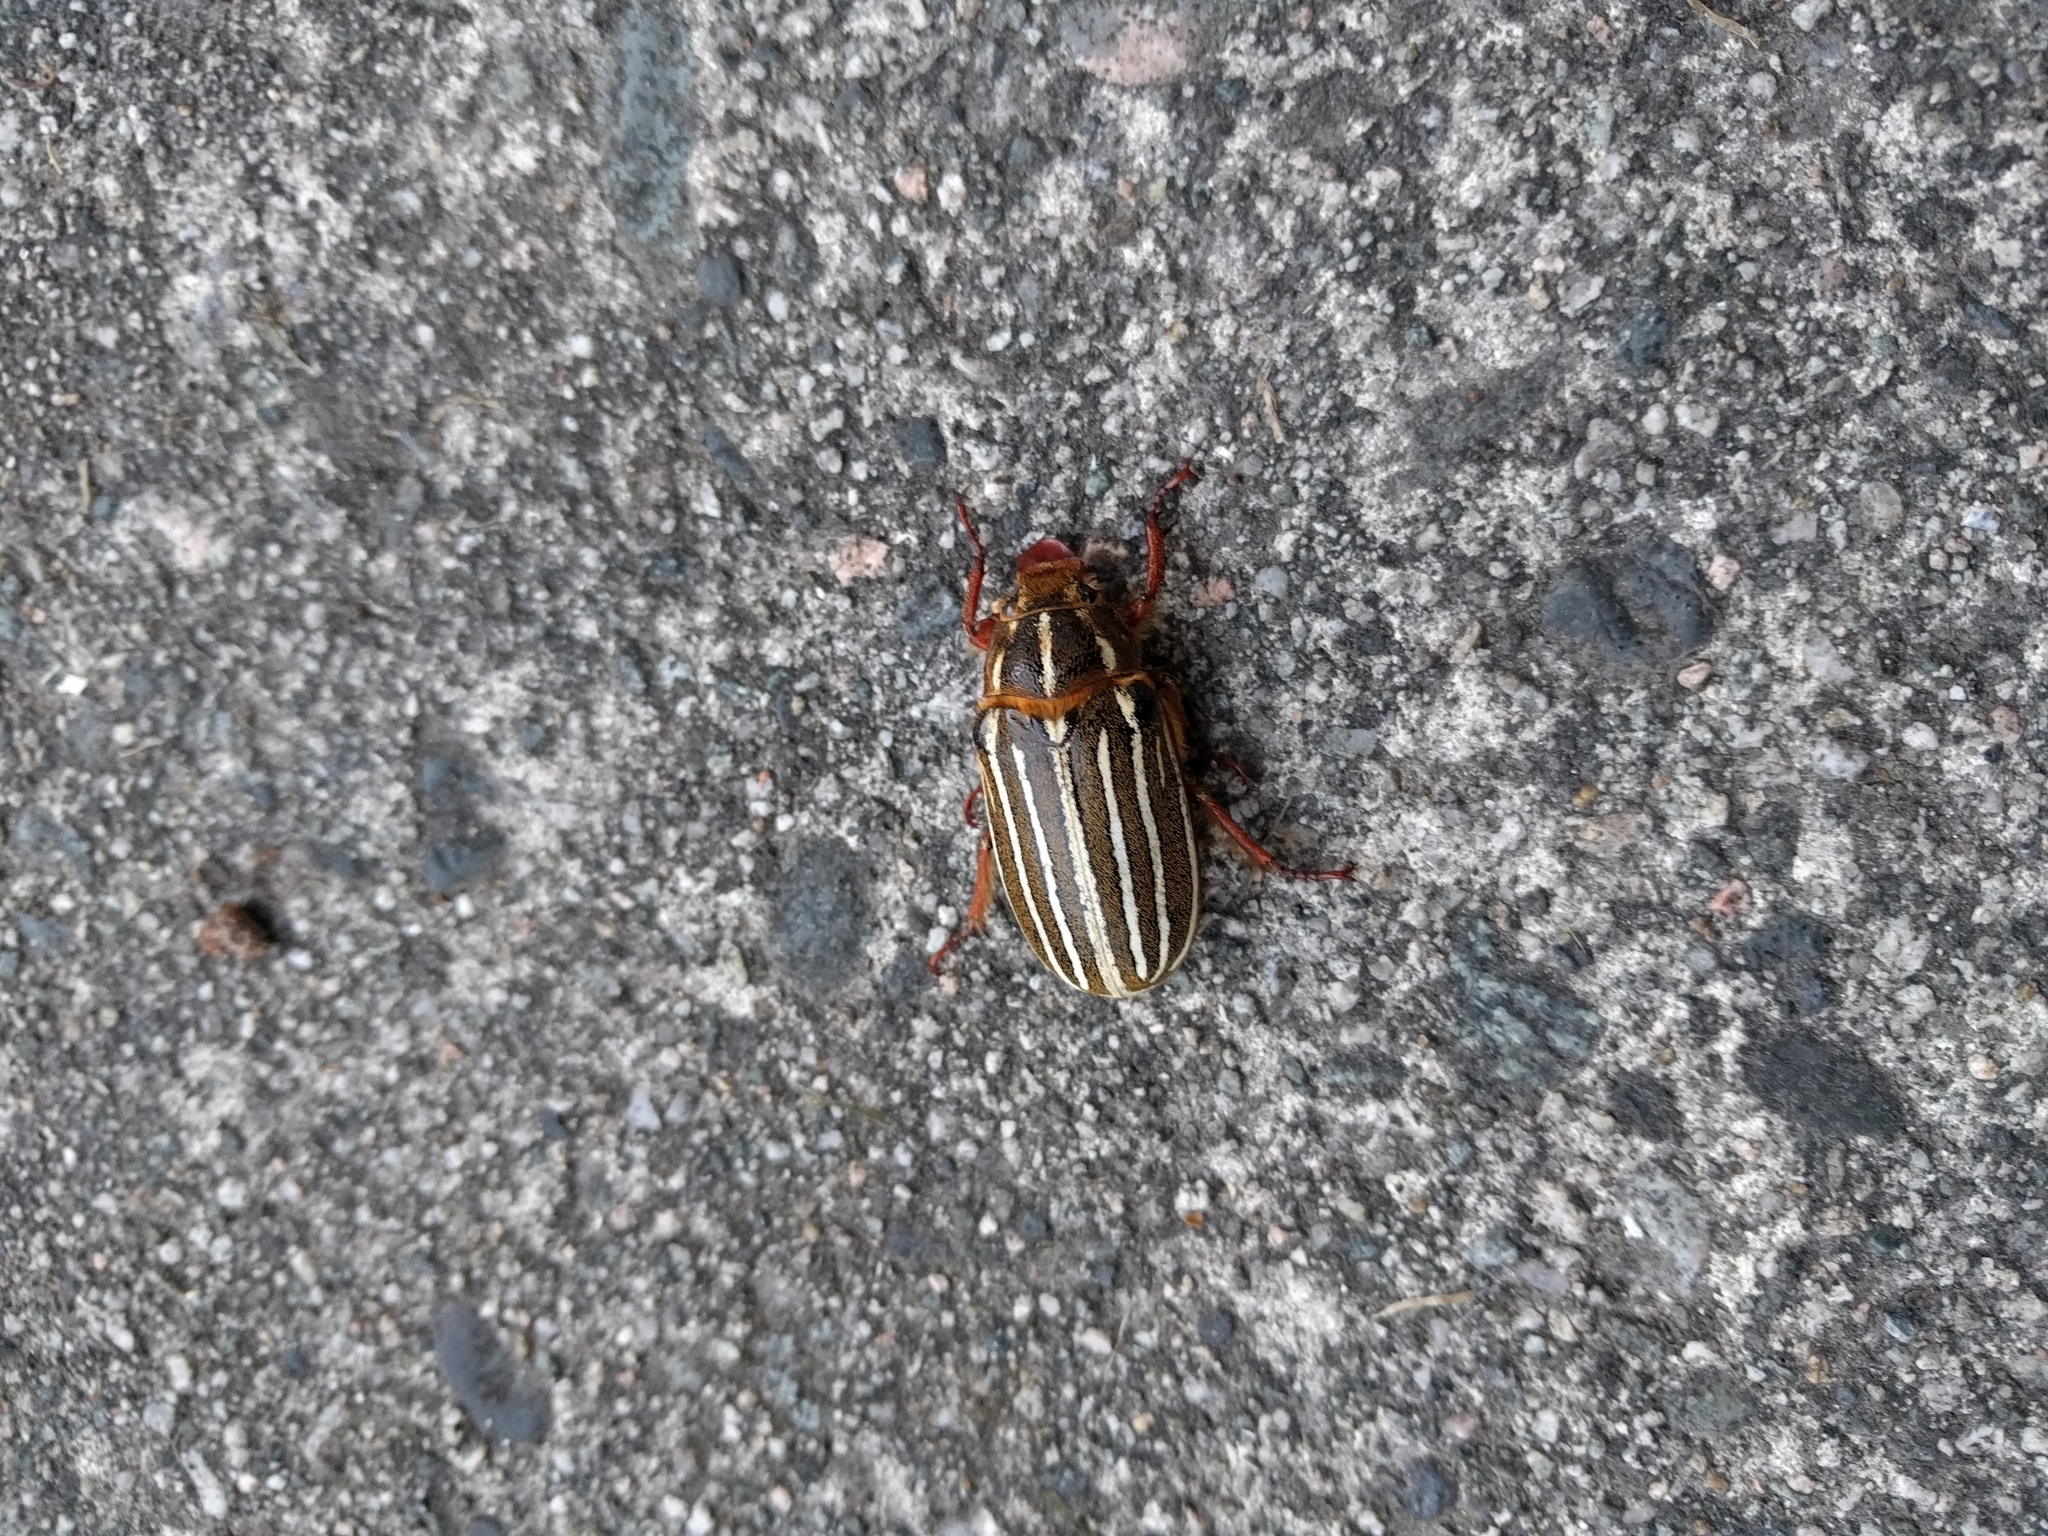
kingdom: Animalia
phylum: Arthropoda
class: Insecta
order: Coleoptera
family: Scarabaeidae
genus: Polyphylla
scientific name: Polyphylla crinita
